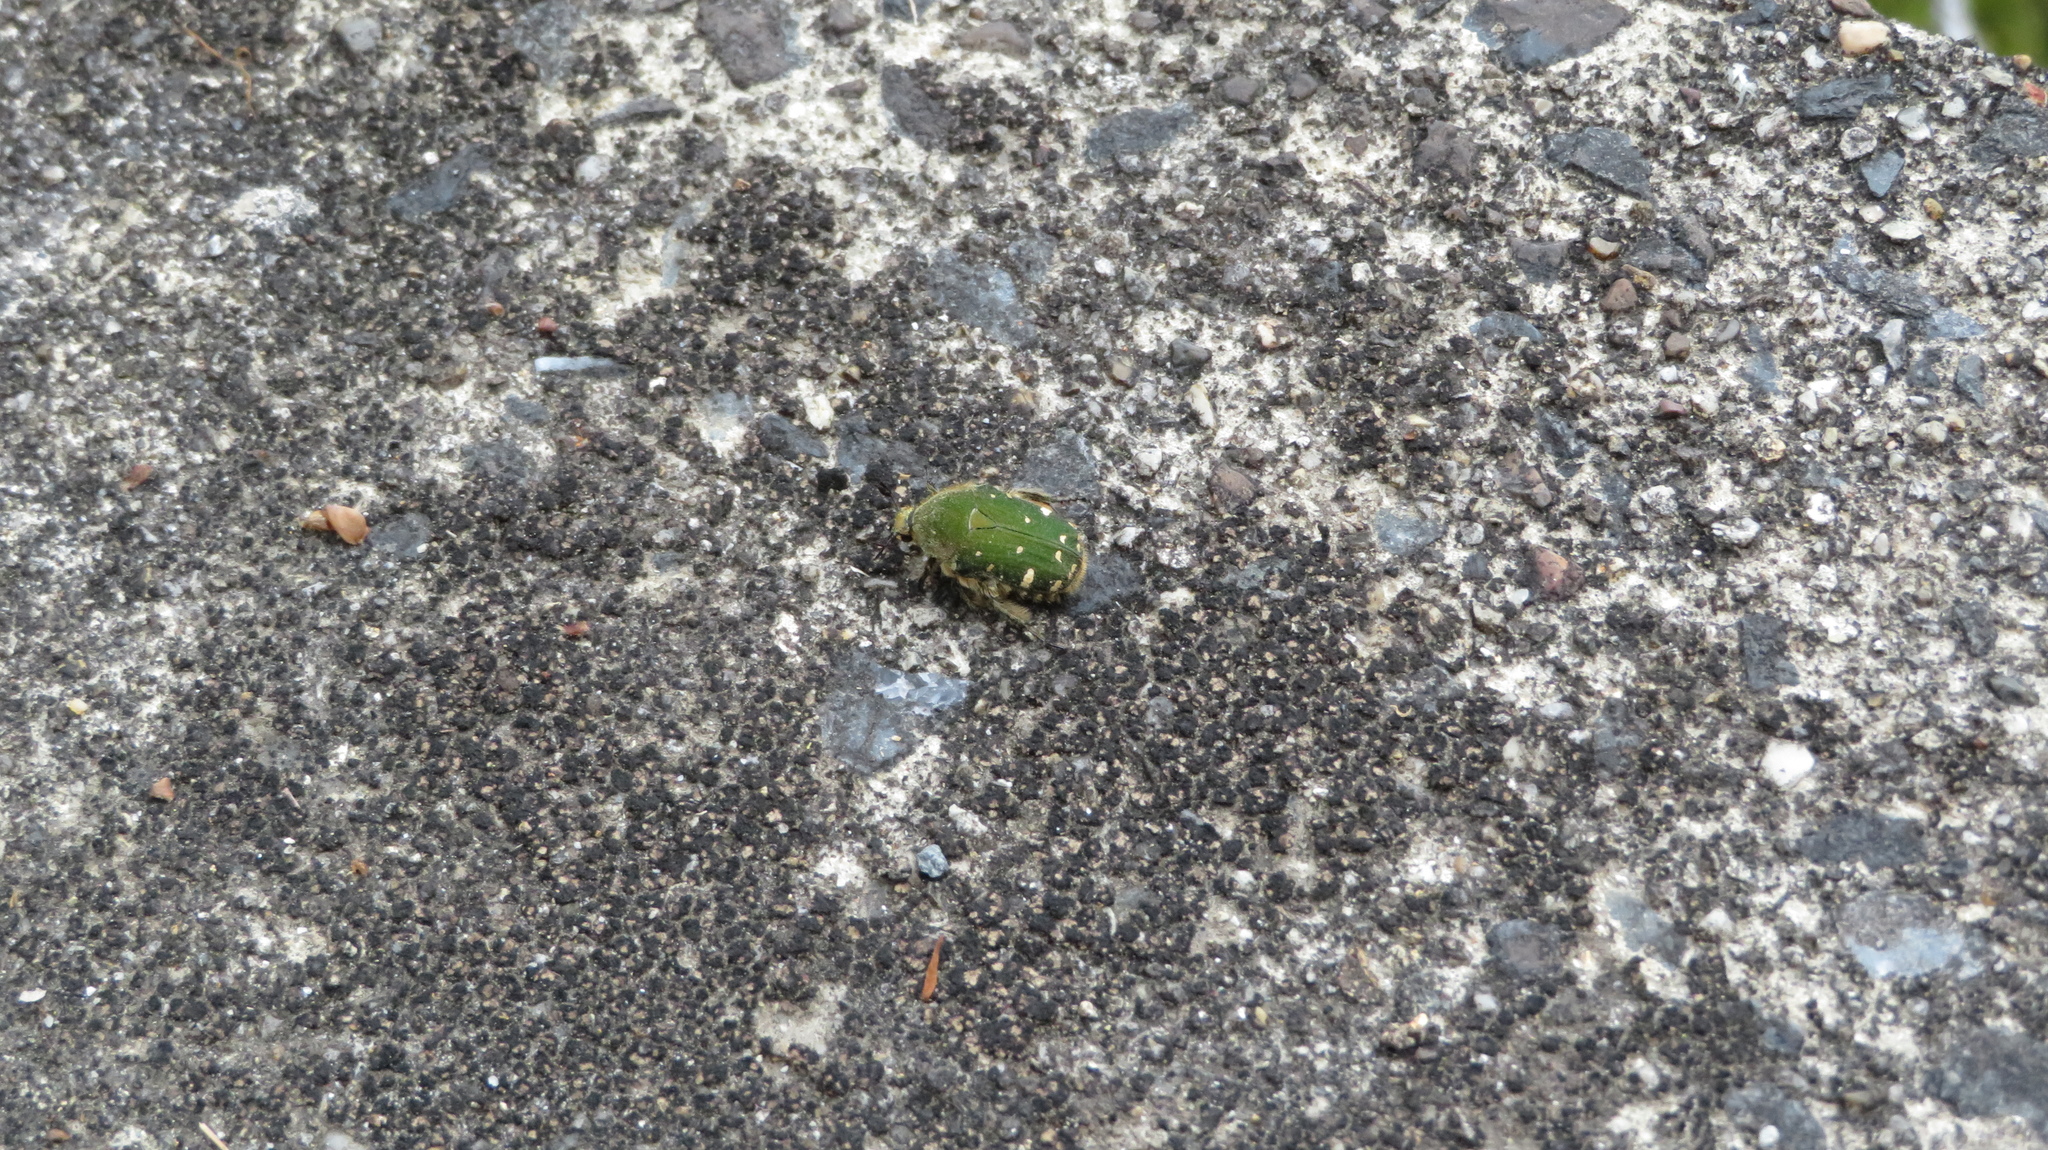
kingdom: Animalia
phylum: Arthropoda
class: Insecta
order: Coleoptera
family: Scarabaeidae
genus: Gametis
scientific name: Gametis jucunda
